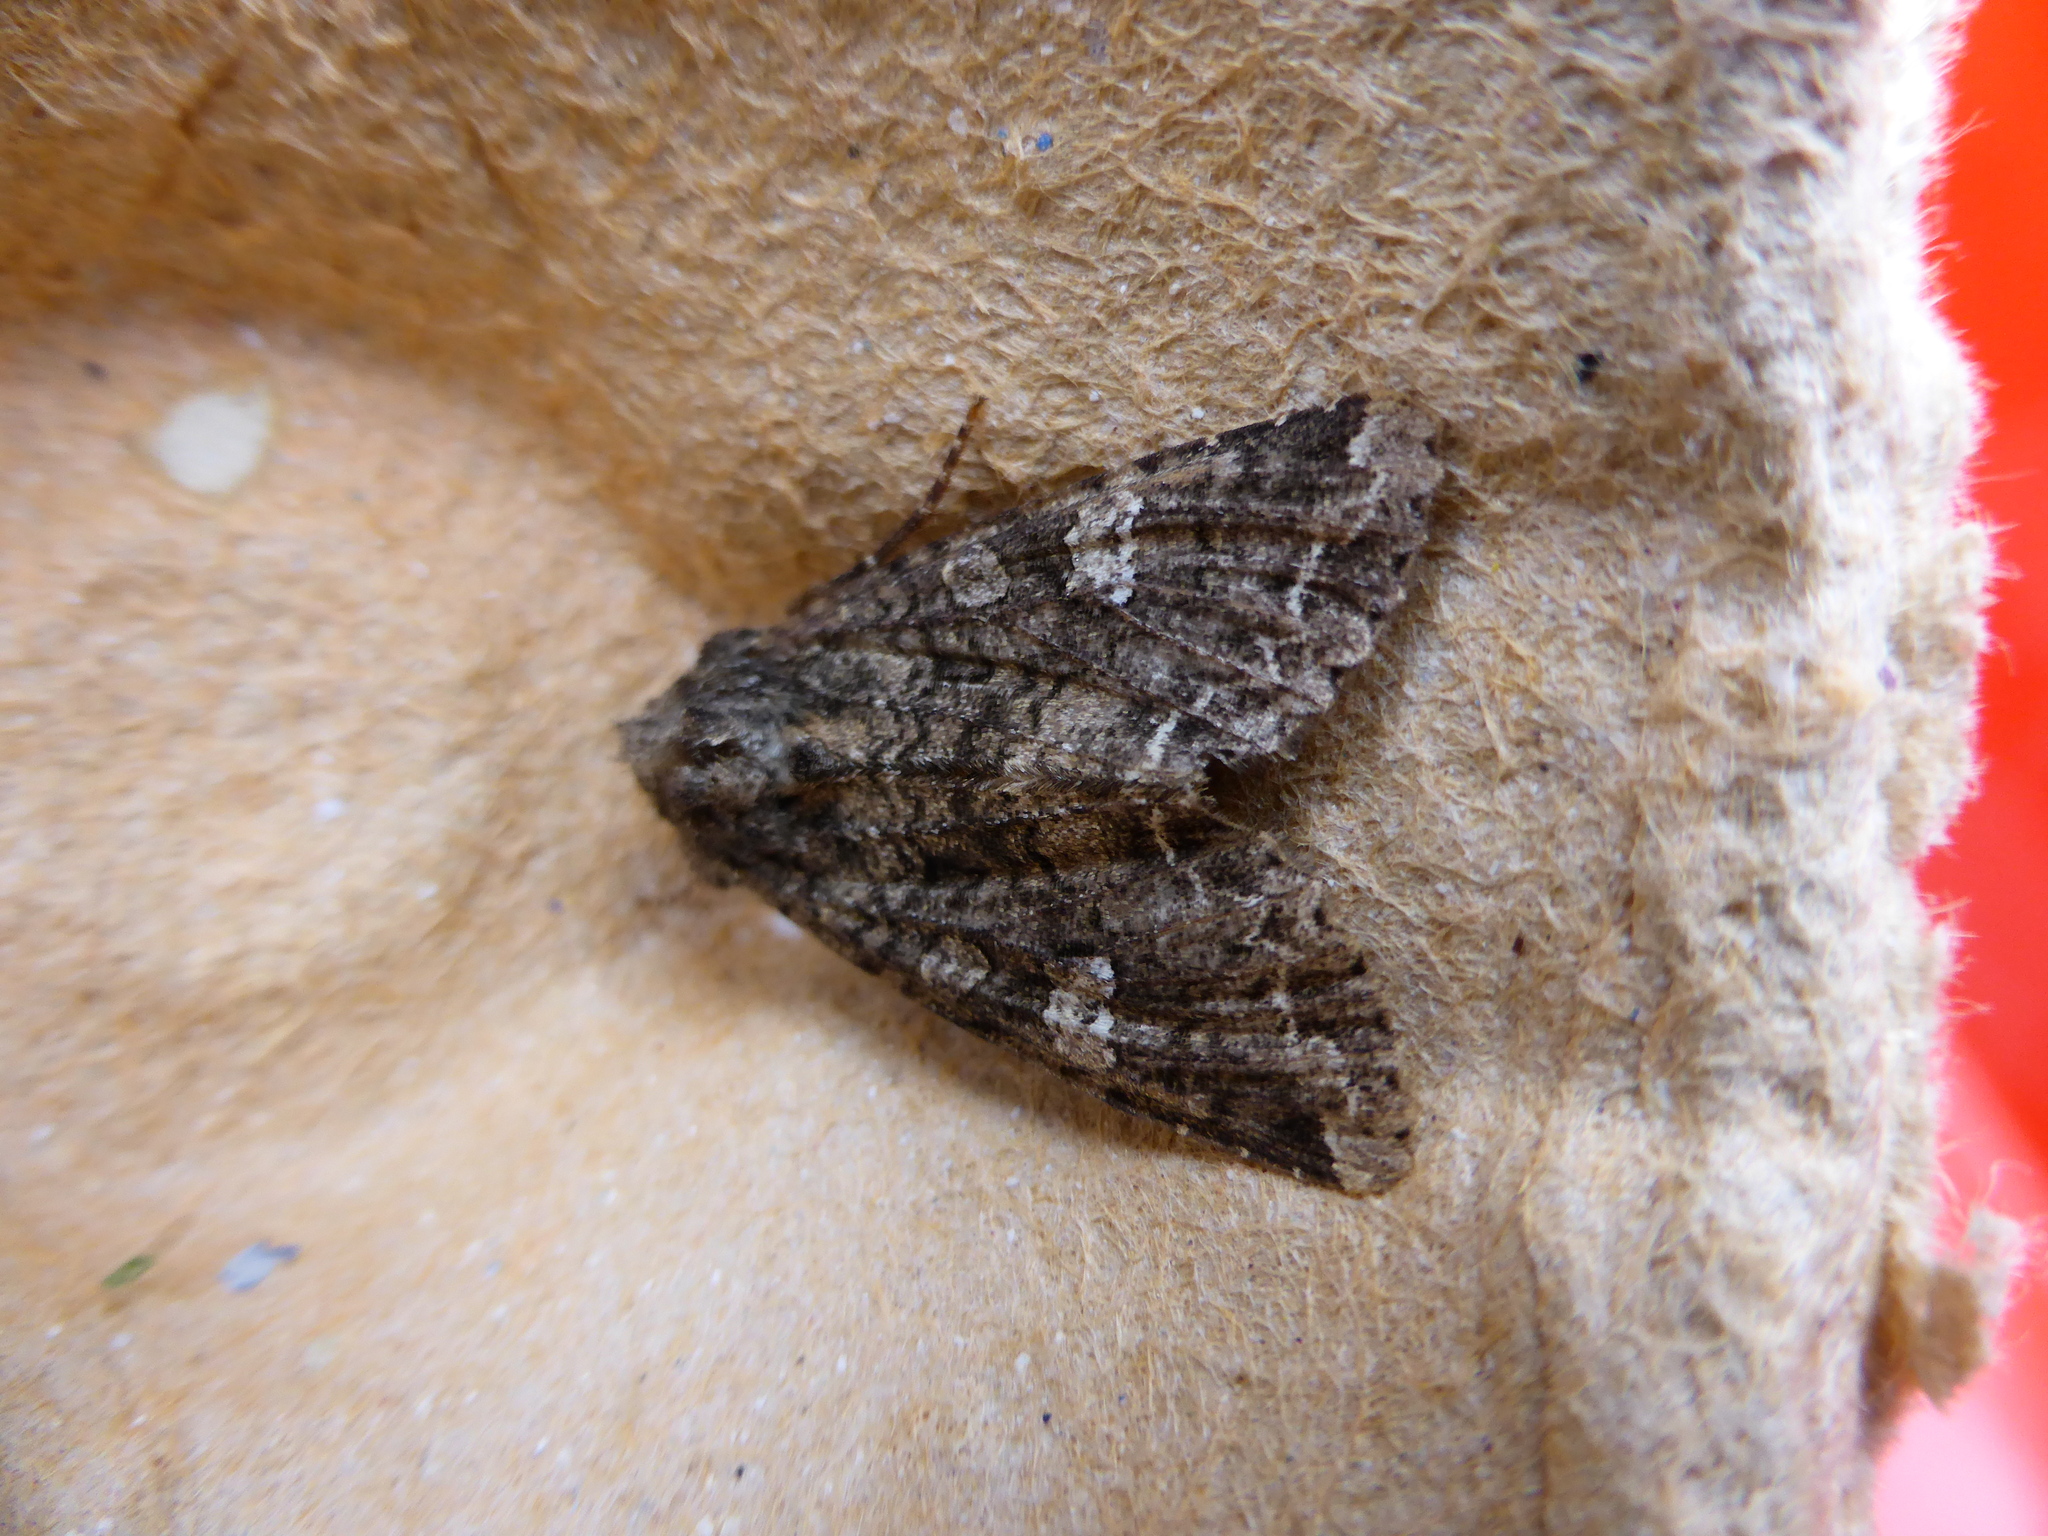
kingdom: Animalia
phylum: Arthropoda
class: Insecta
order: Lepidoptera
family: Noctuidae
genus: Mamestra
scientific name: Mamestra brassicae
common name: Cabbage moth
